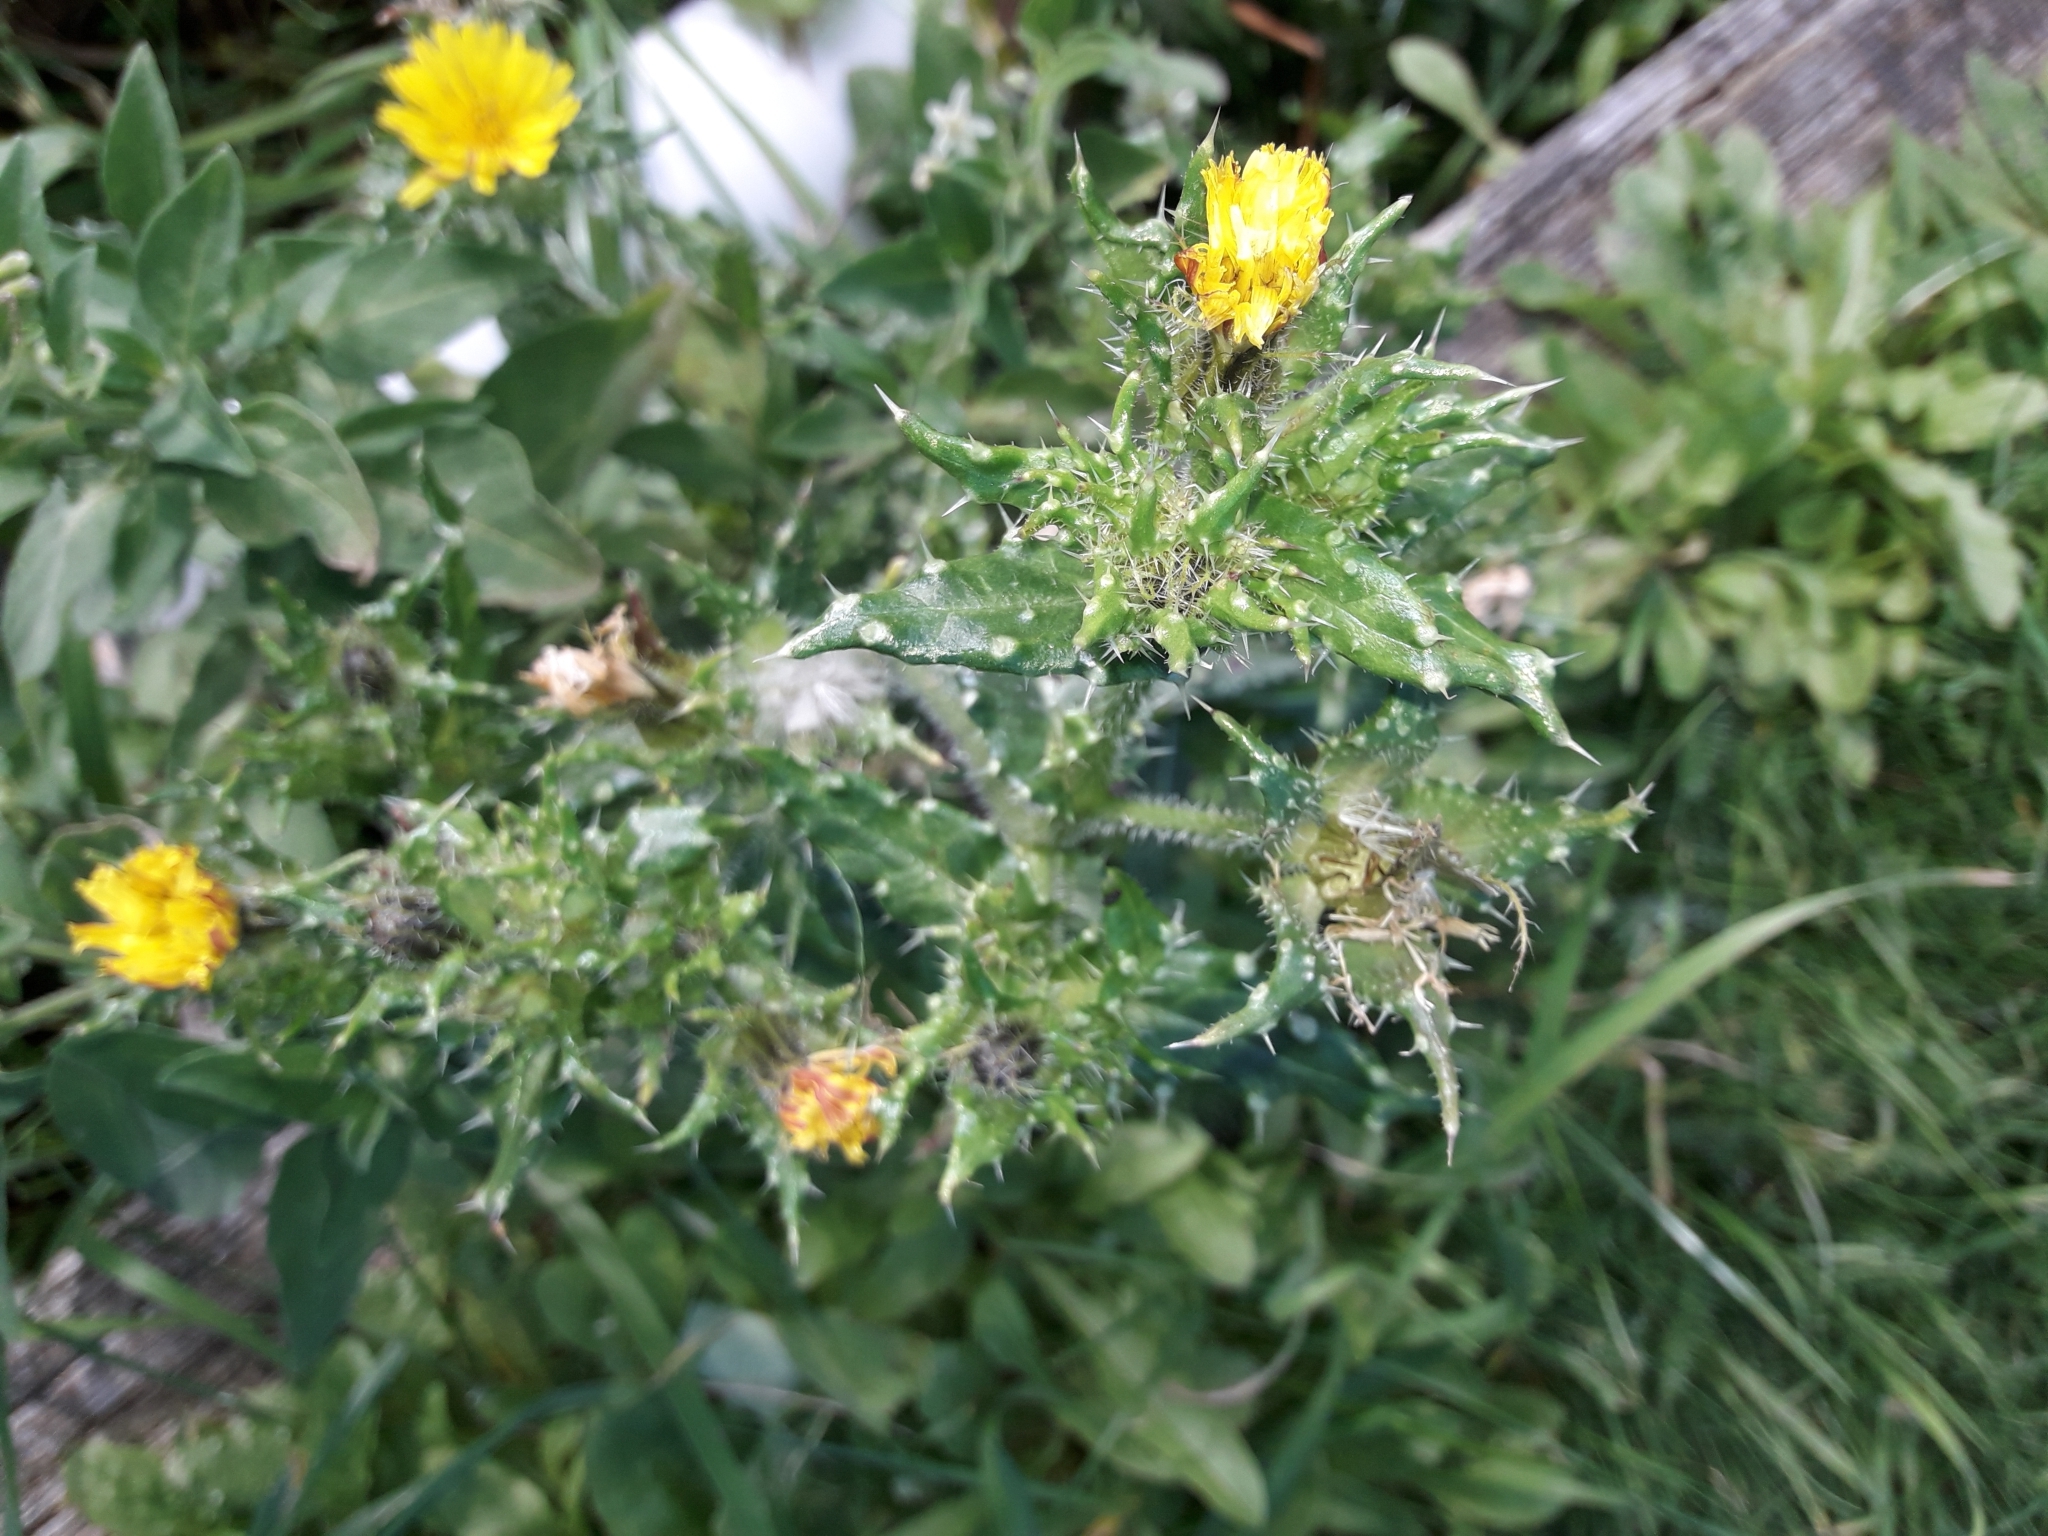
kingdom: Plantae
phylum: Tracheophyta
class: Magnoliopsida
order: Asterales
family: Asteraceae
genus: Helminthotheca
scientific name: Helminthotheca echioides
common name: Ox-tongue
